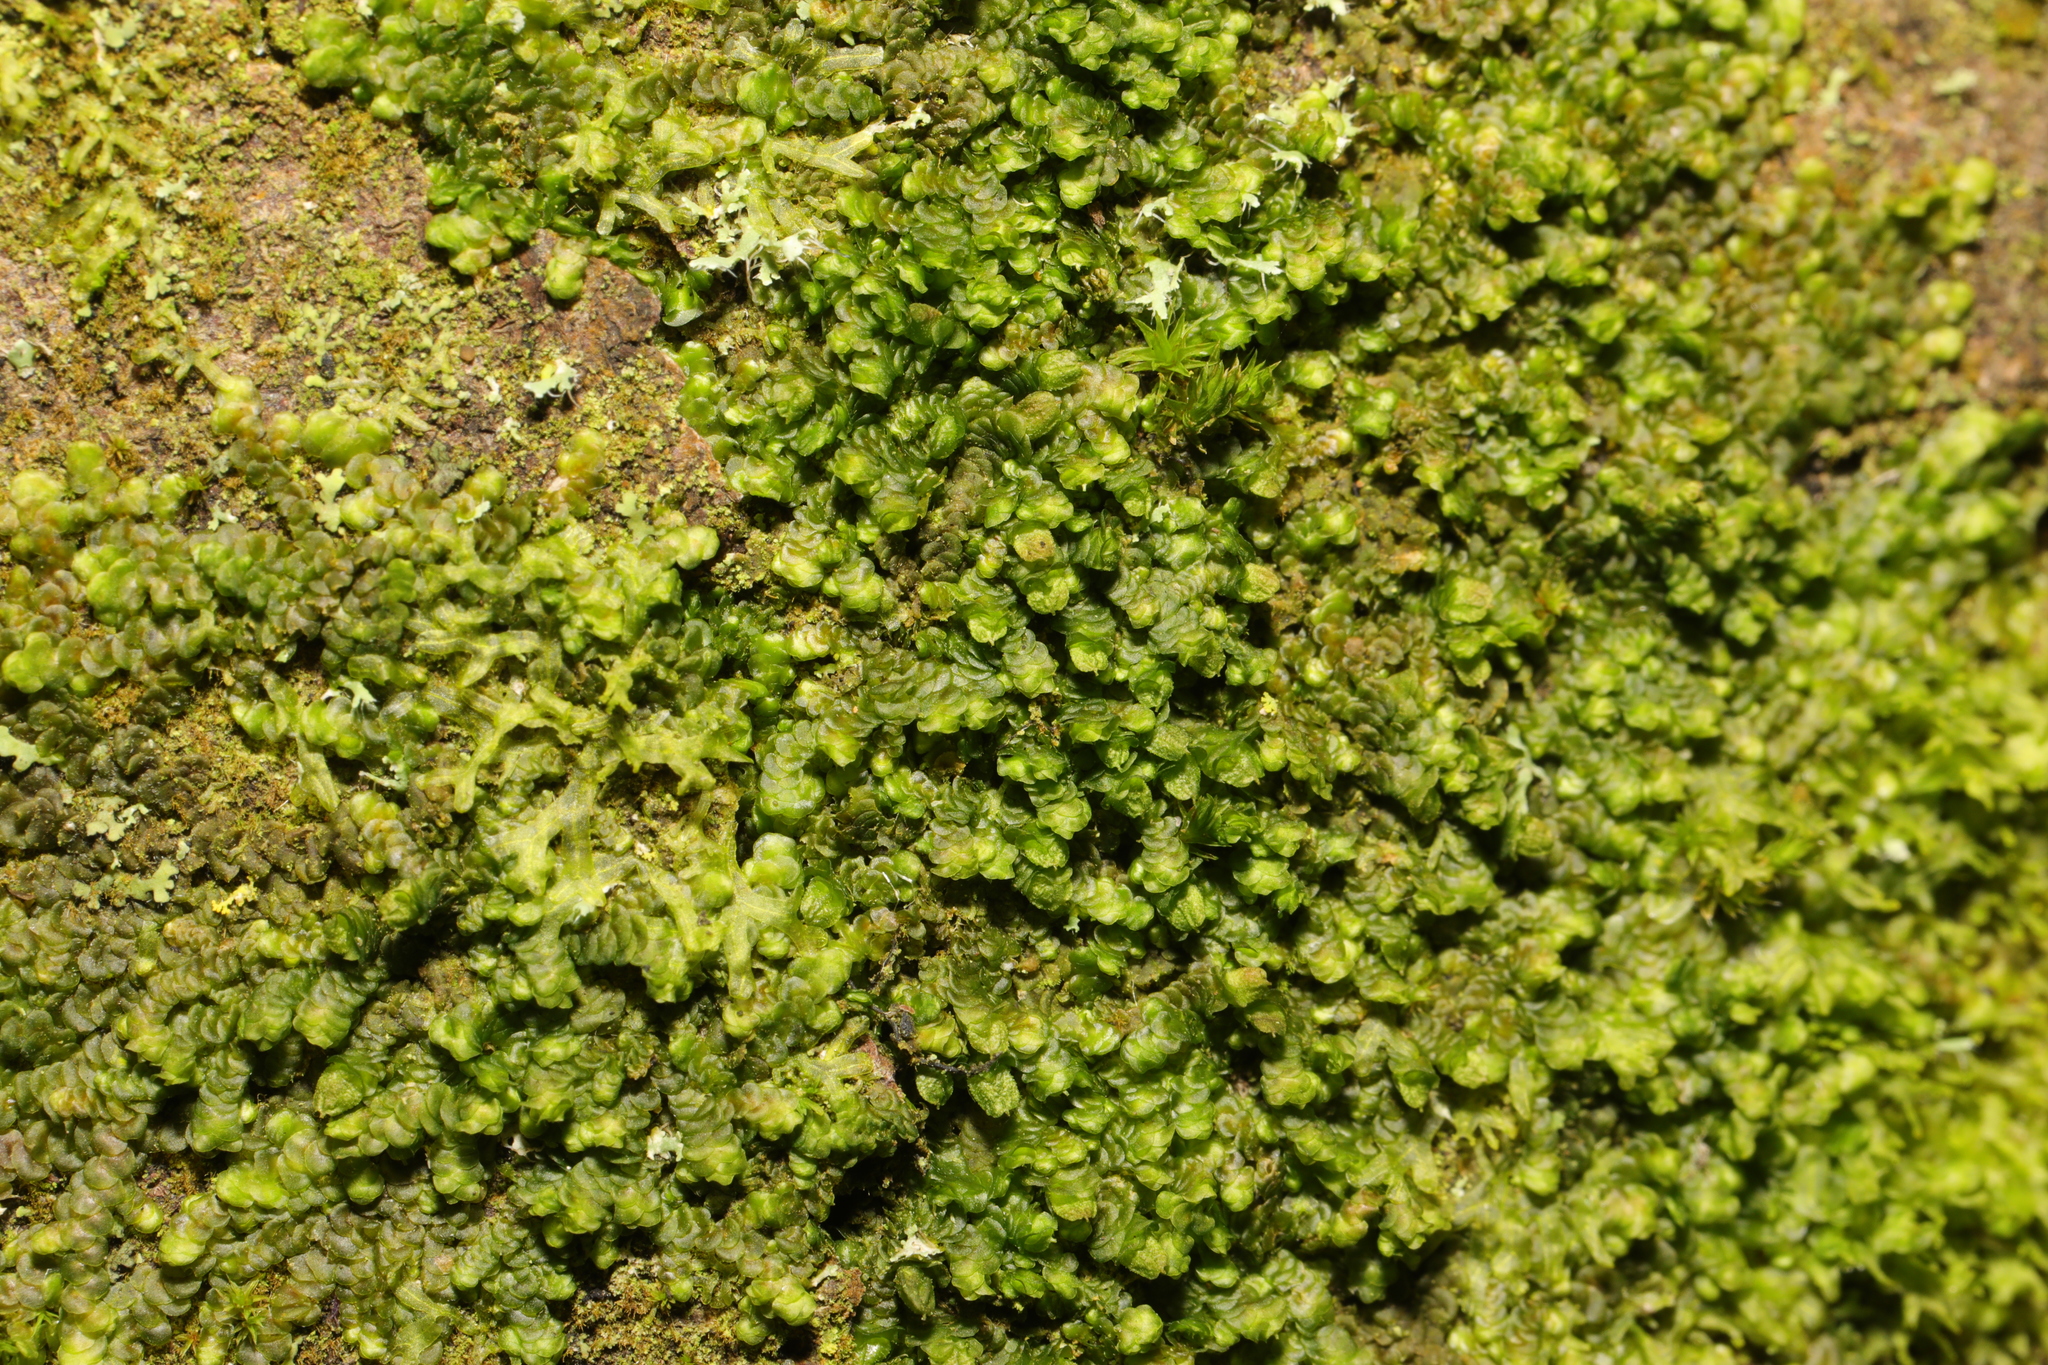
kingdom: Plantae
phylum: Marchantiophyta
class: Jungermanniopsida
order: Porellales
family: Frullaniaceae
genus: Frullania
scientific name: Frullania dilatata
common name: Dilated scalewort
